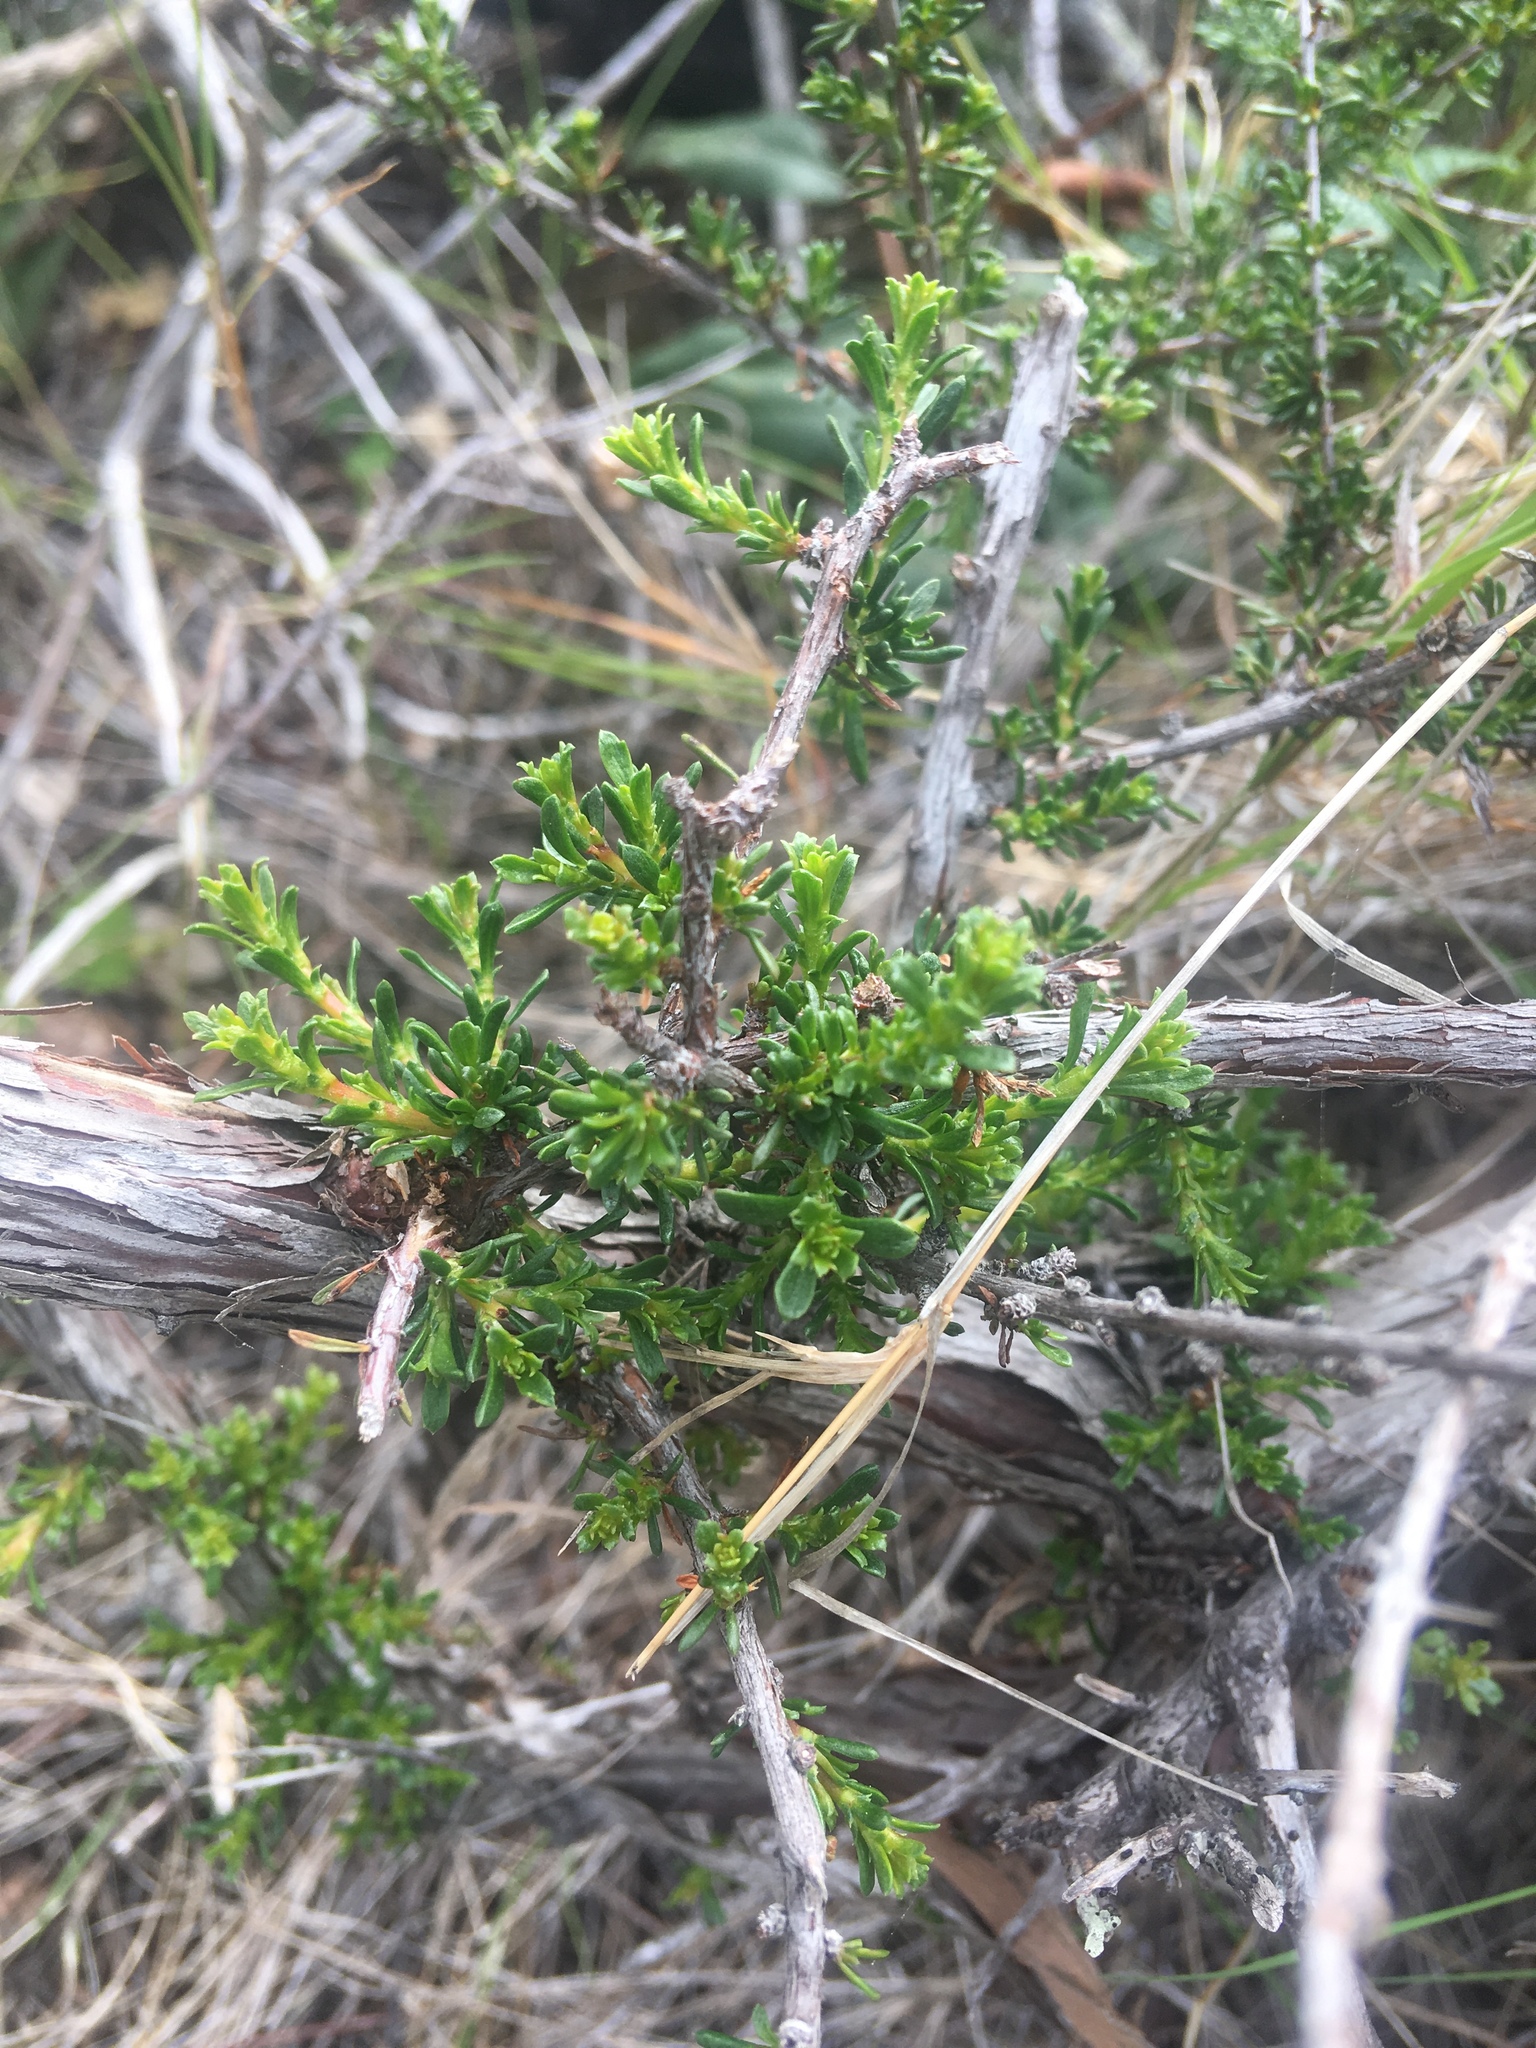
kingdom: Plantae
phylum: Tracheophyta
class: Magnoliopsida
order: Rosales
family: Rosaceae
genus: Adenostoma
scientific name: Adenostoma fasciculatum
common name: Chamise
